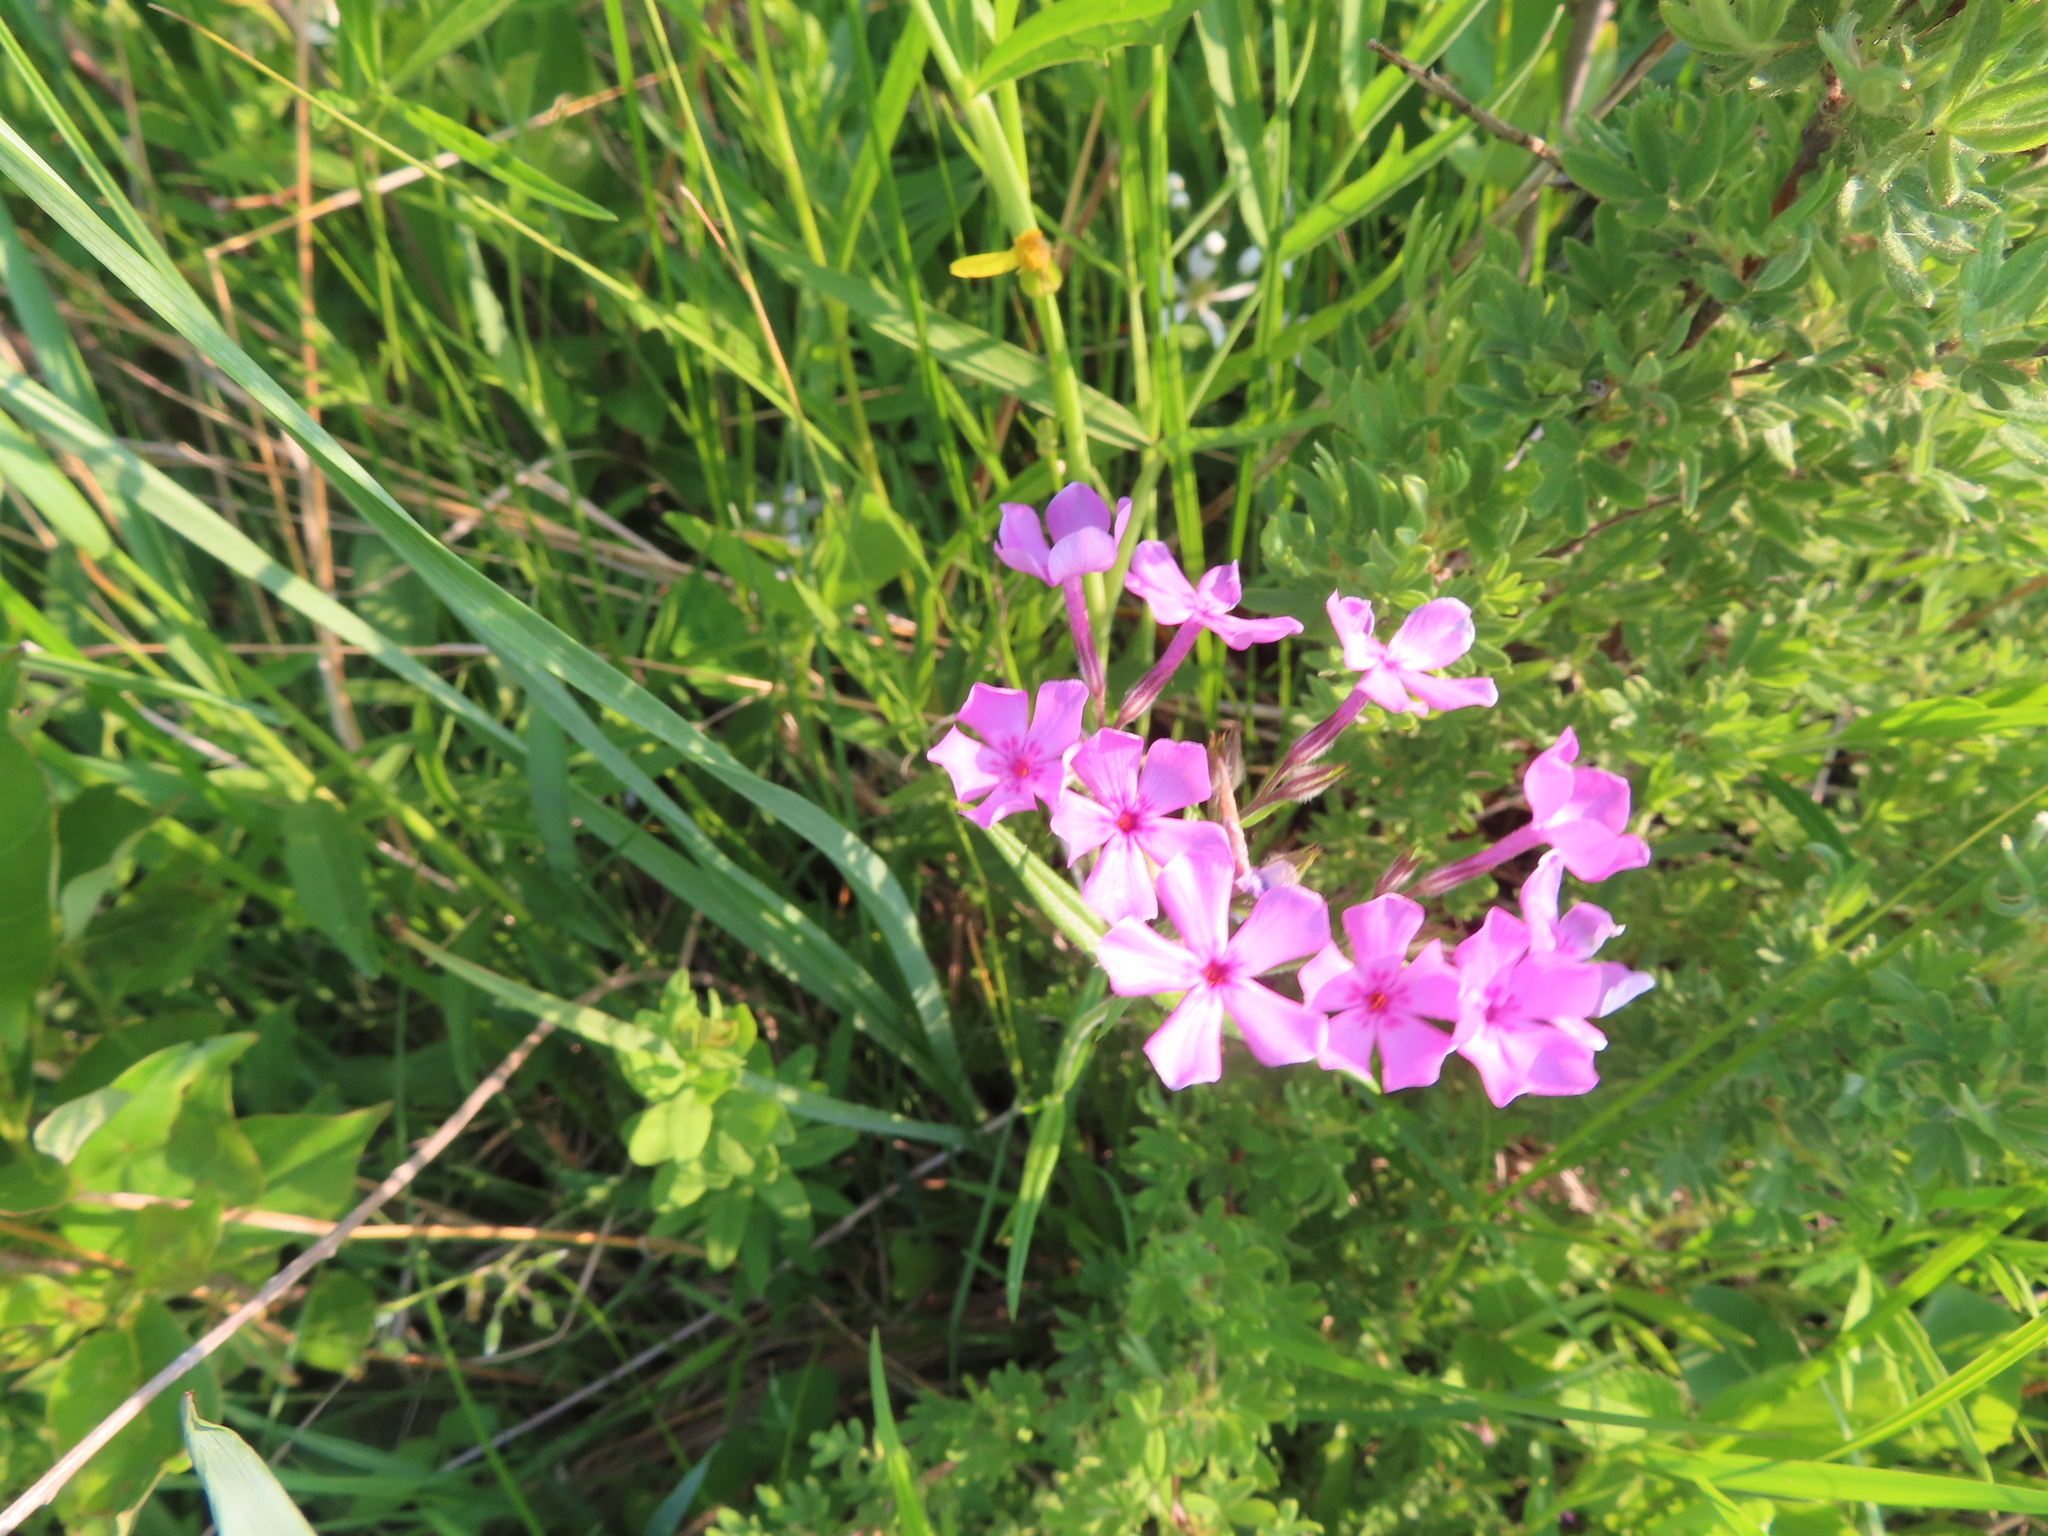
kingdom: Plantae
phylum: Tracheophyta
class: Magnoliopsida
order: Ericales
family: Polemoniaceae
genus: Phlox
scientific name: Phlox pilosa
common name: Prairie phlox
